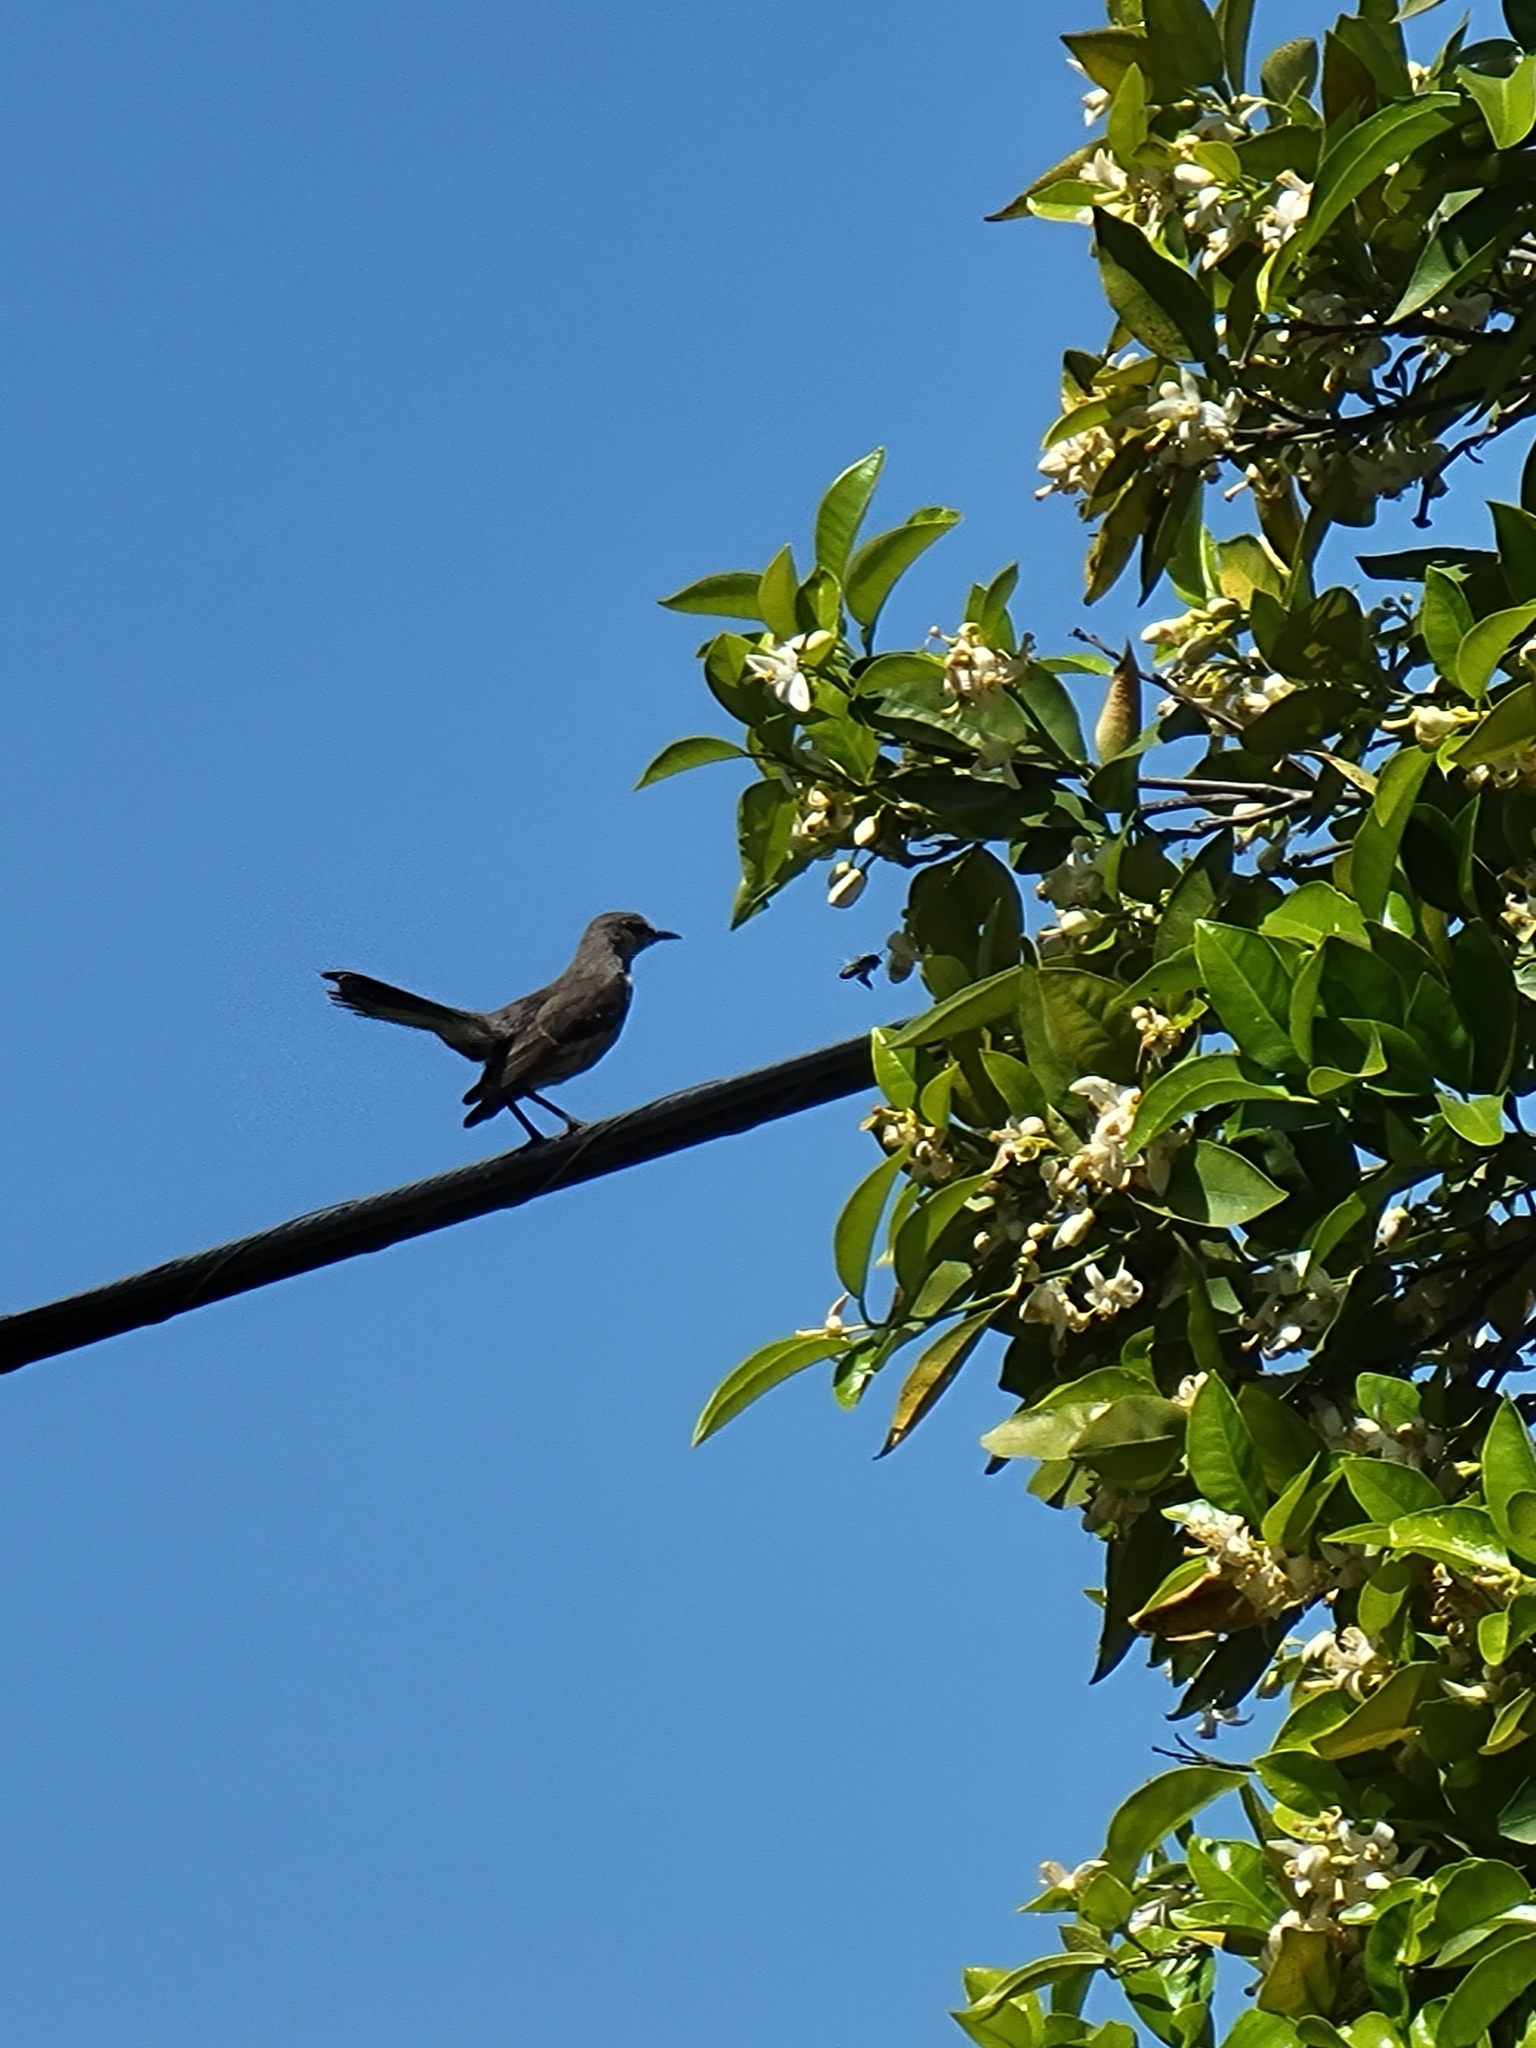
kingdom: Animalia
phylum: Chordata
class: Aves
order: Passeriformes
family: Mimidae
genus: Mimus
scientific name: Mimus polyglottos
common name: Northern mockingbird
